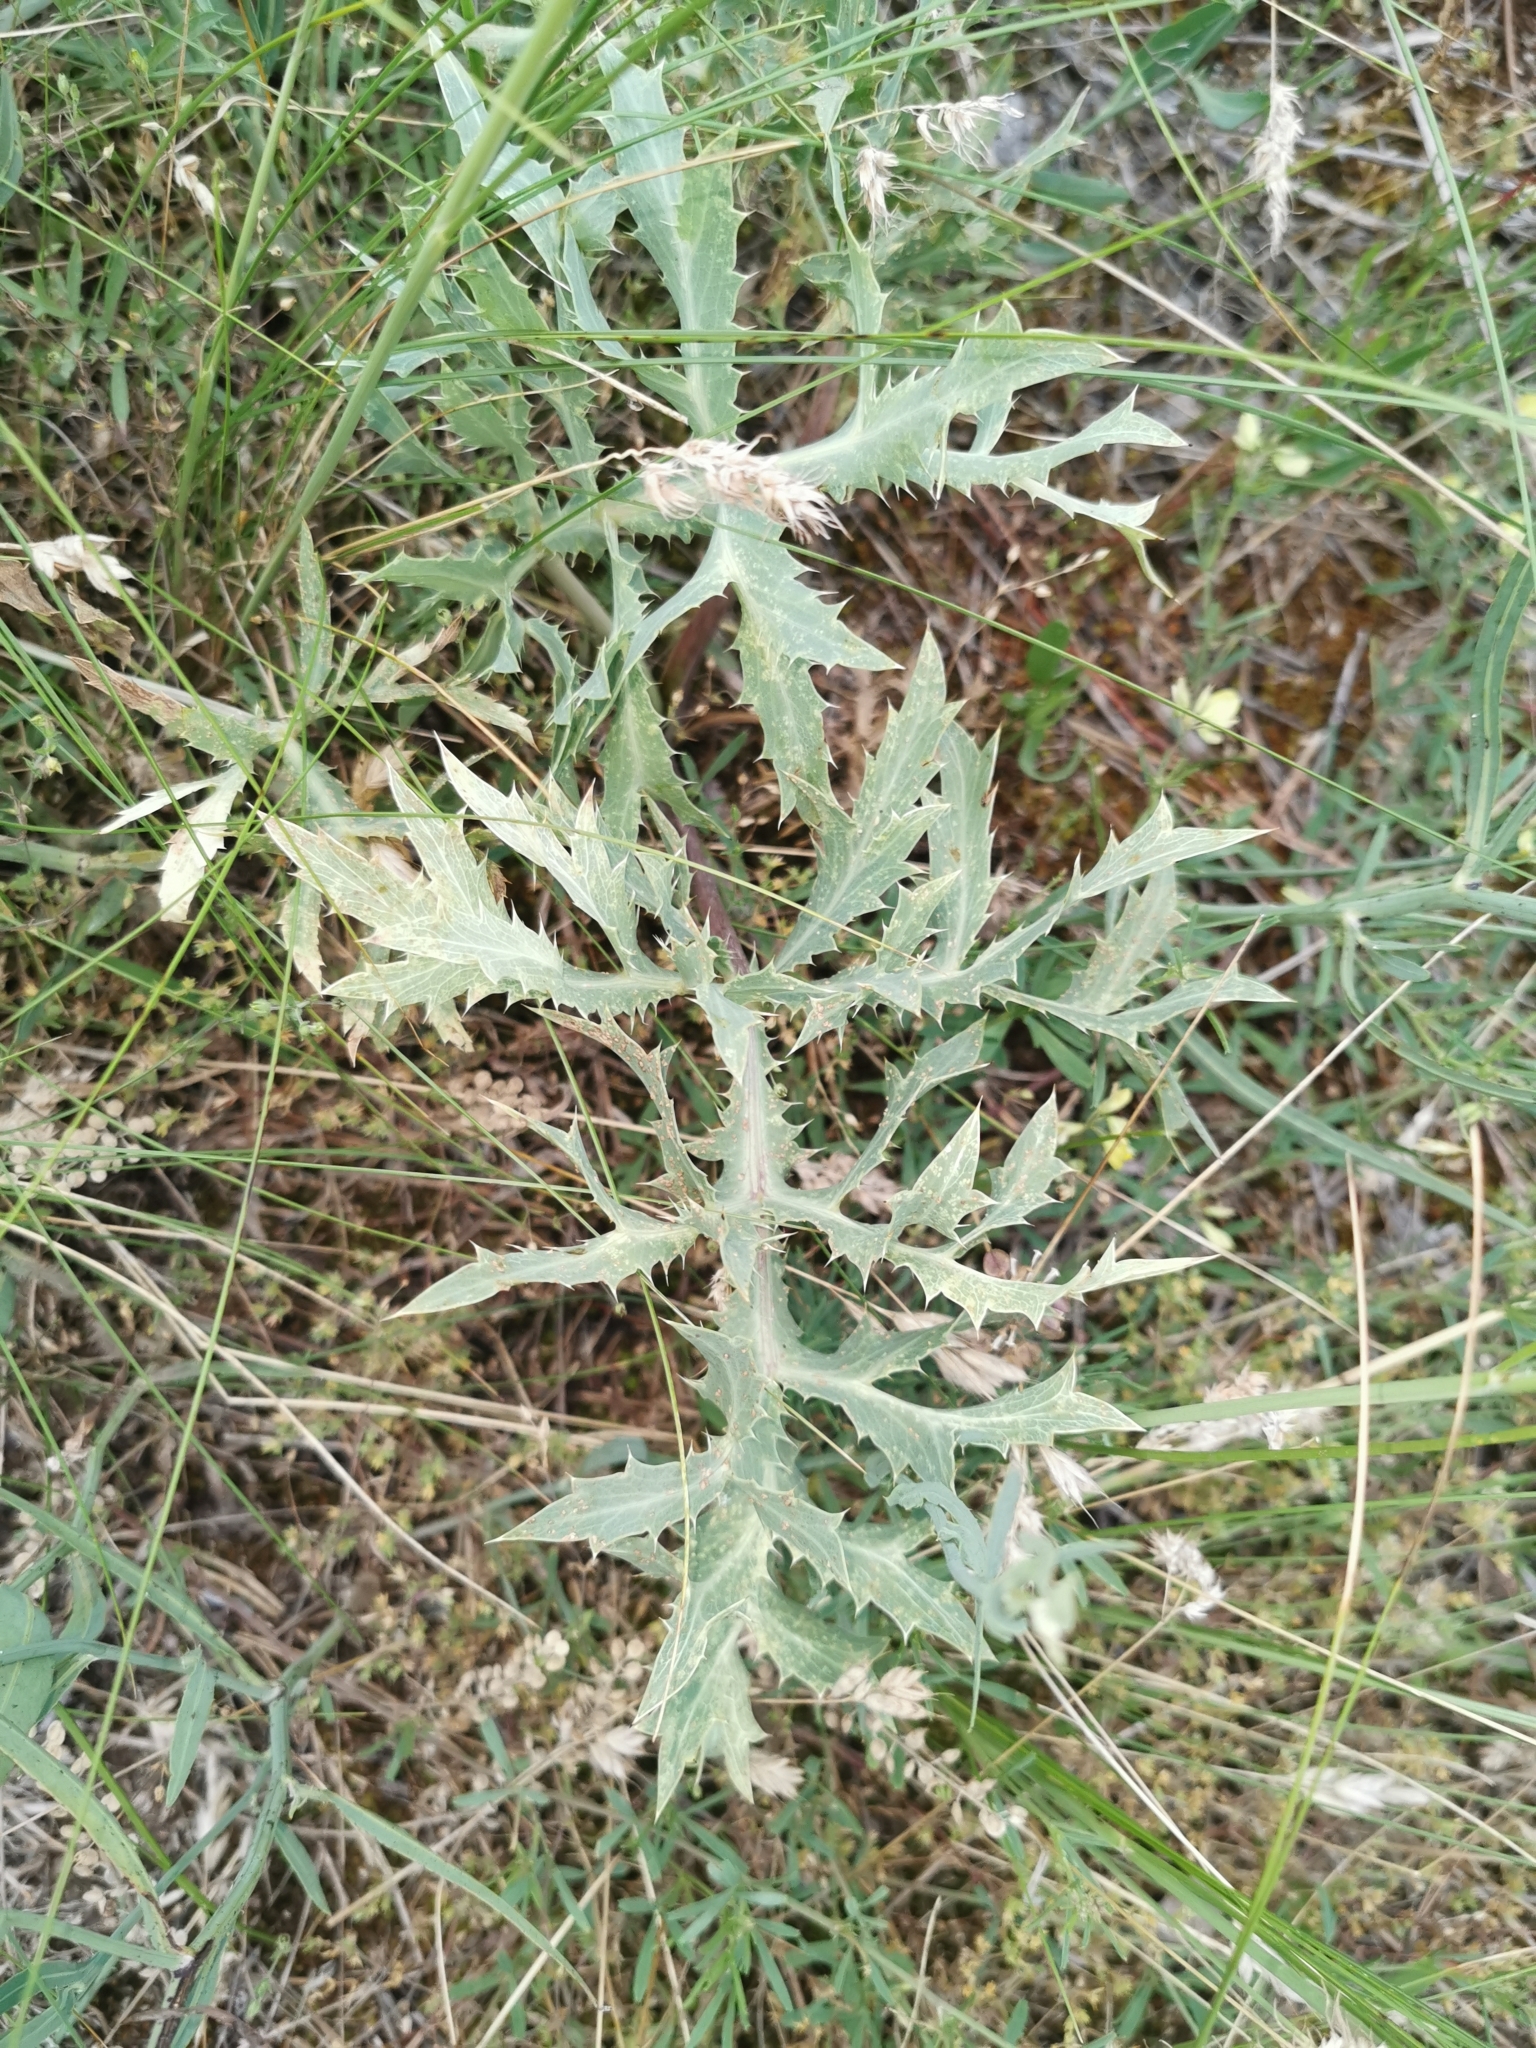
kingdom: Plantae
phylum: Tracheophyta
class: Magnoliopsida
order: Apiales
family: Apiaceae
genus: Eryngium
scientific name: Eryngium campestre
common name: Field eryngo
